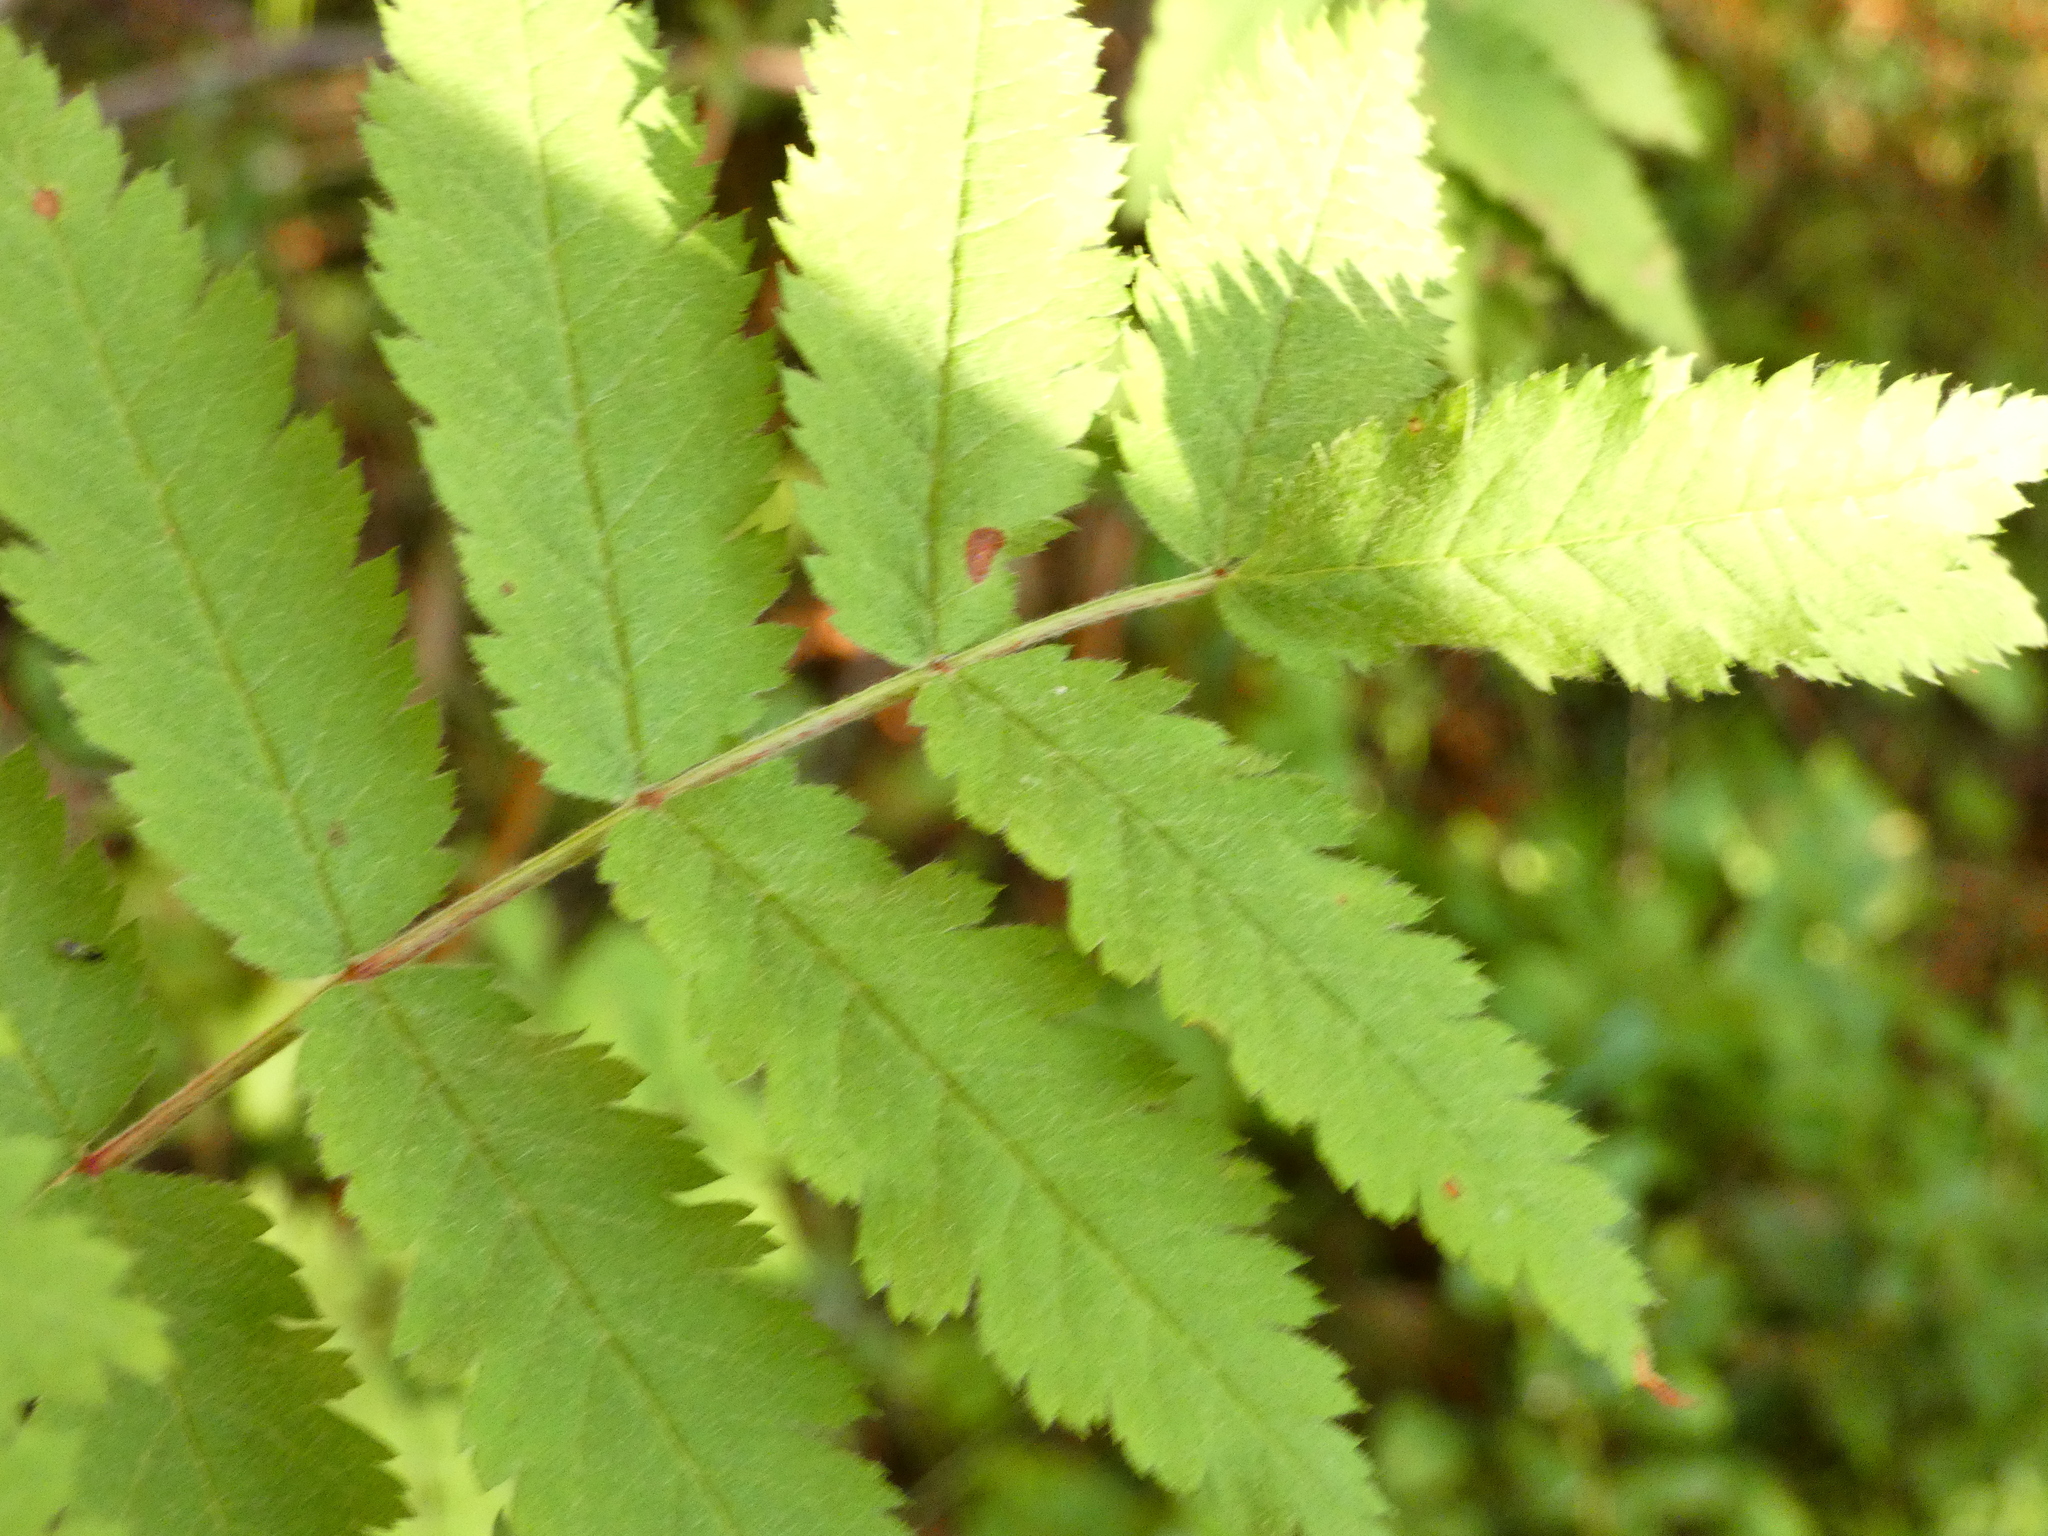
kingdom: Plantae
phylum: Tracheophyta
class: Magnoliopsida
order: Rosales
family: Rosaceae
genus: Sorbus
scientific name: Sorbus aucuparia
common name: Rowan
